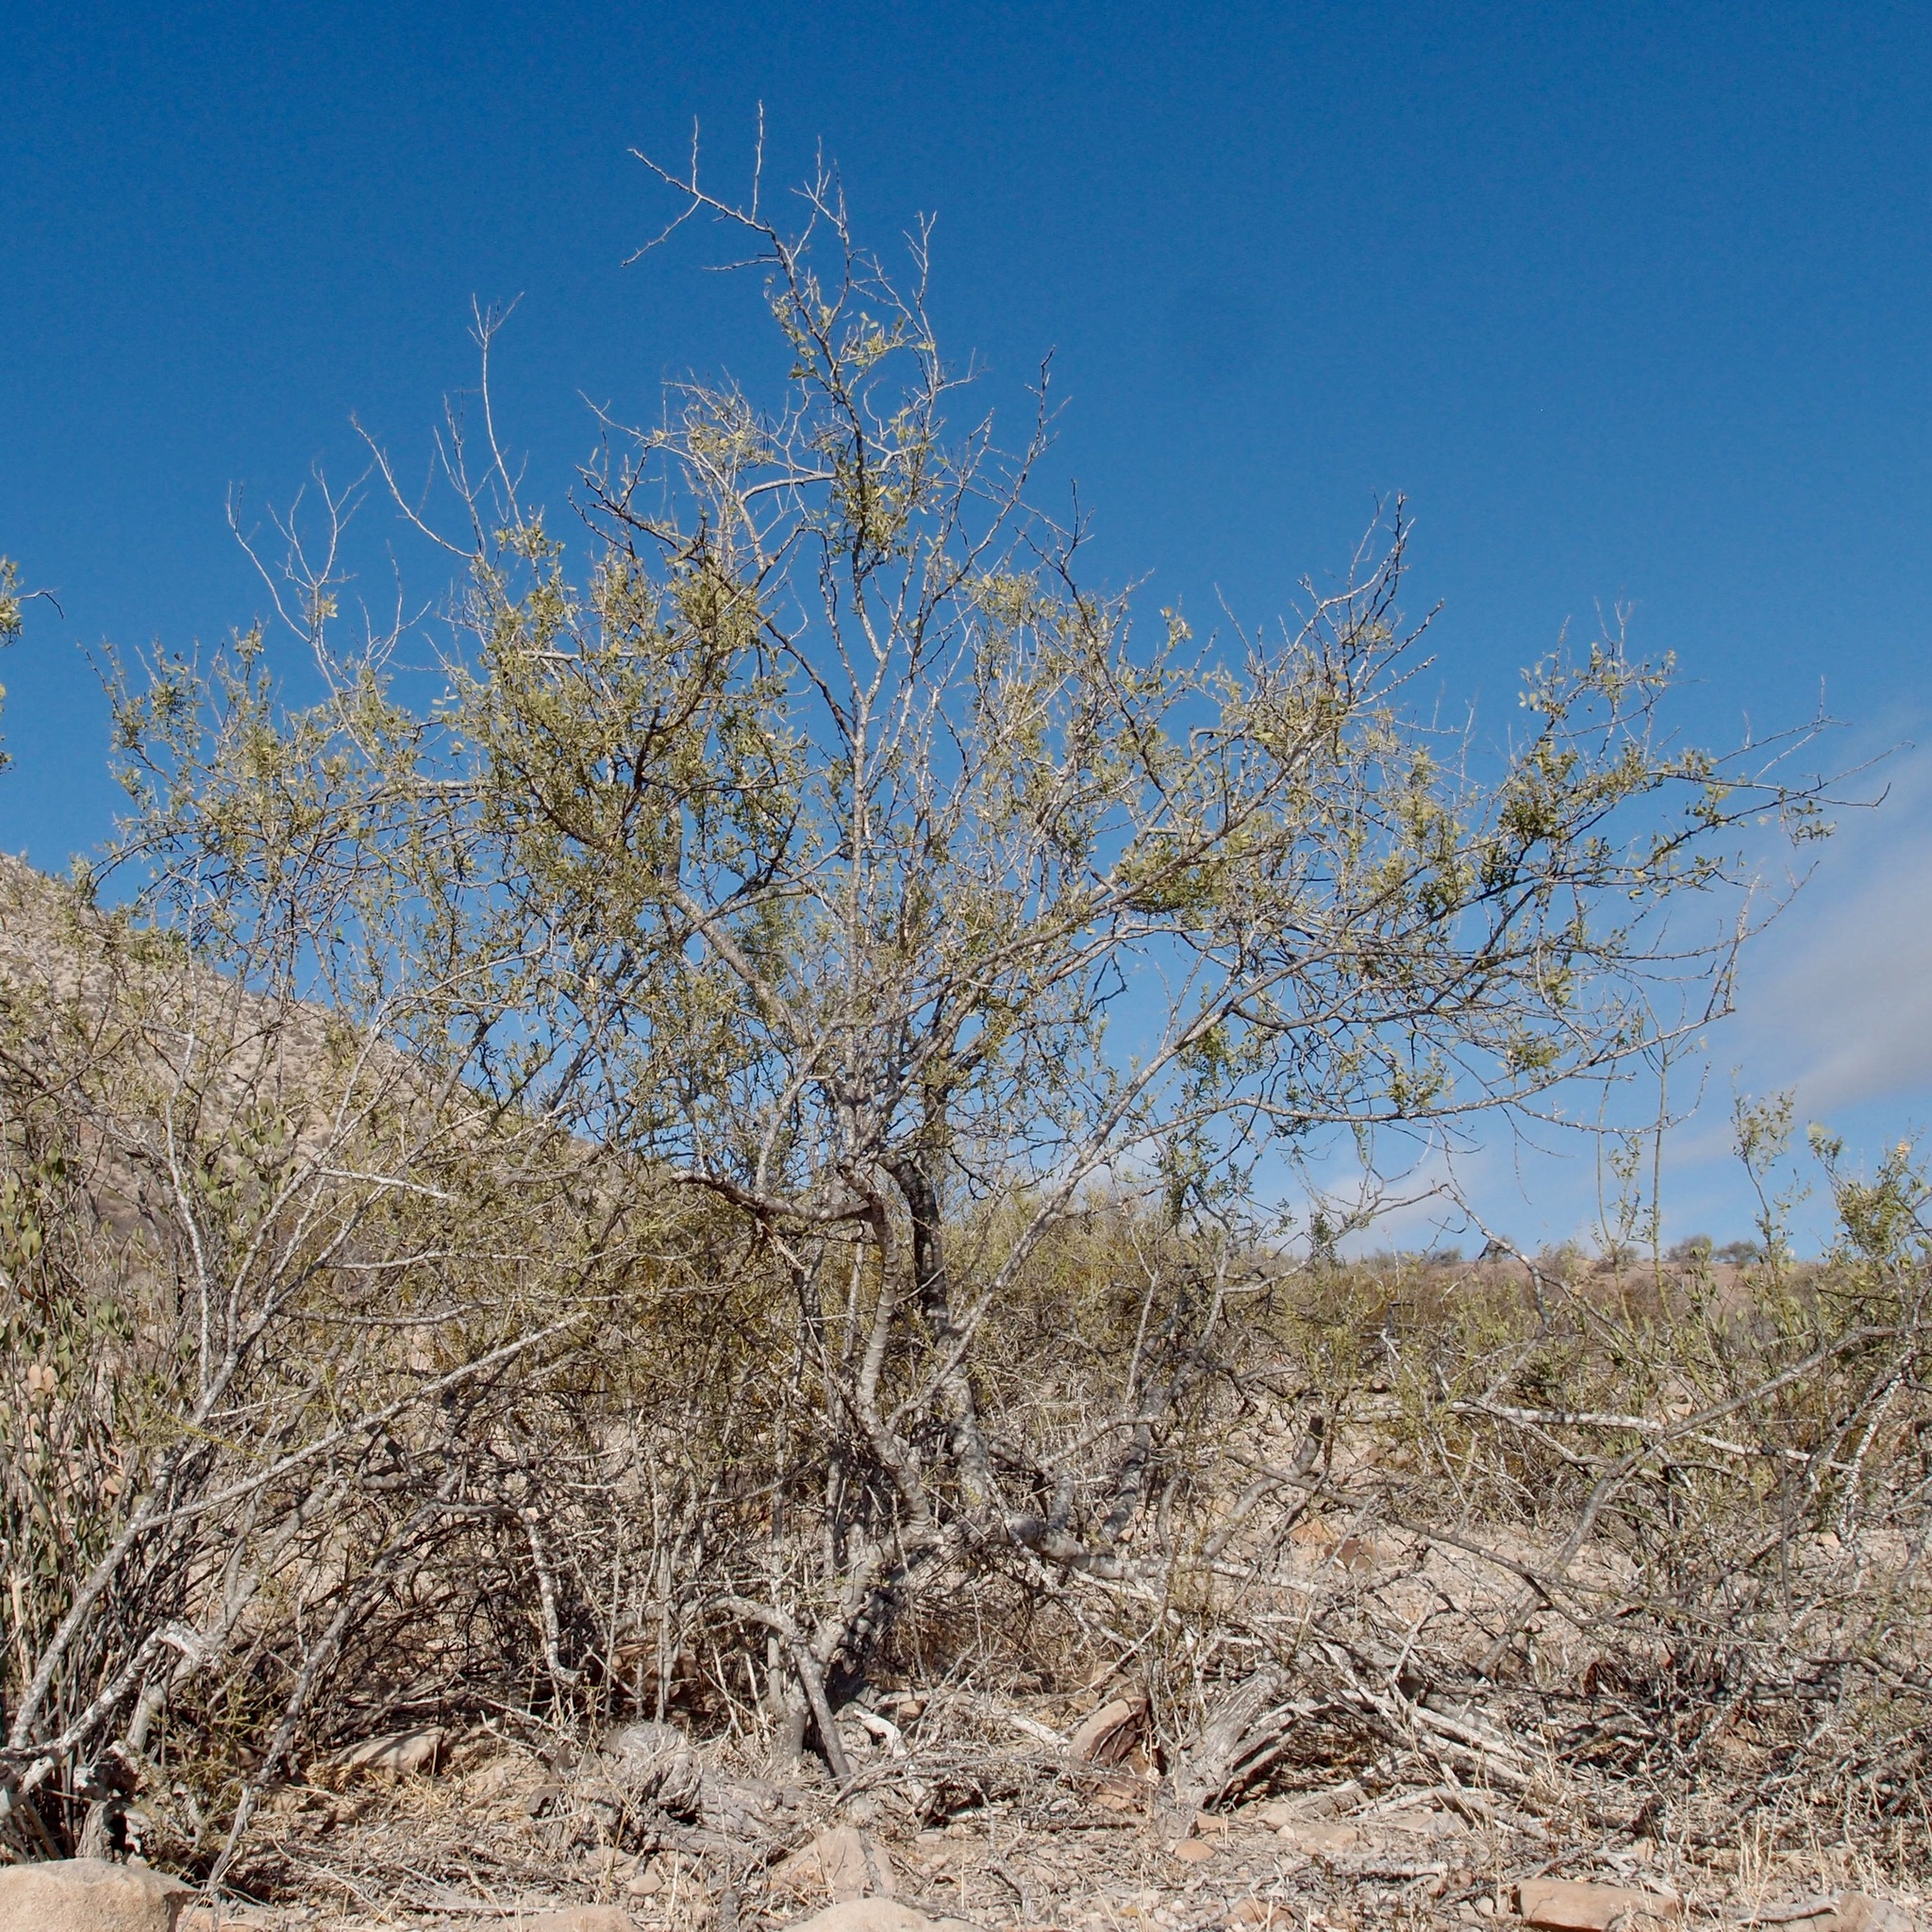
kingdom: Plantae
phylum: Tracheophyta
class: Magnoliopsida
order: Fabales
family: Fabaceae
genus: Olneya
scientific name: Olneya tesota
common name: Desert ironwood
